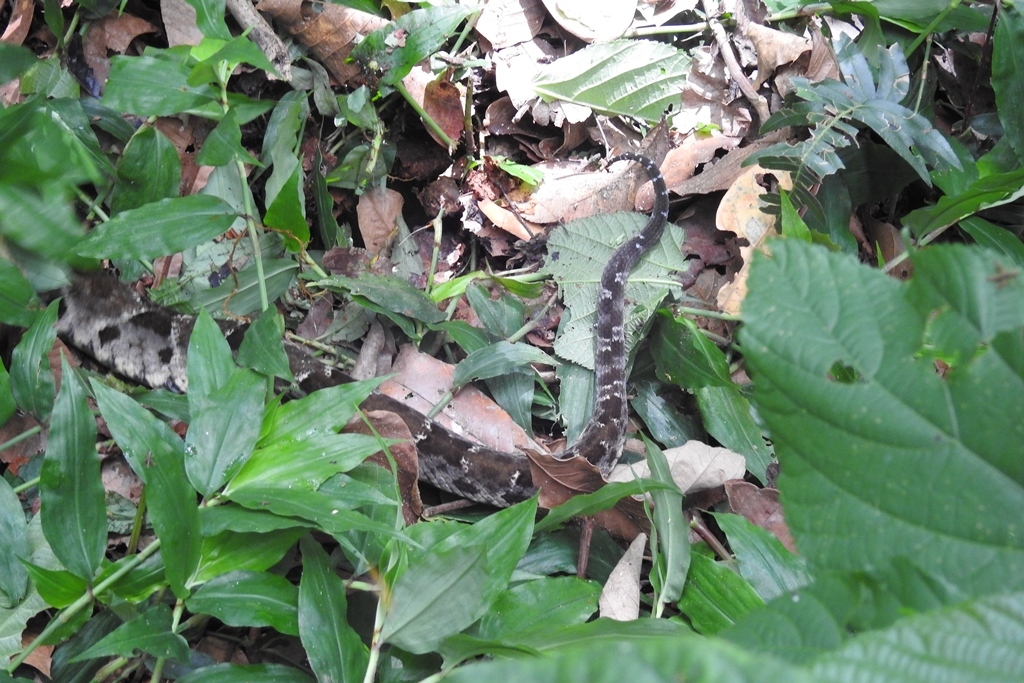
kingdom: Animalia
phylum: Chordata
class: Squamata
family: Viperidae
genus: Bothrops
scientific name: Bothrops asper
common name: Terciopelo
